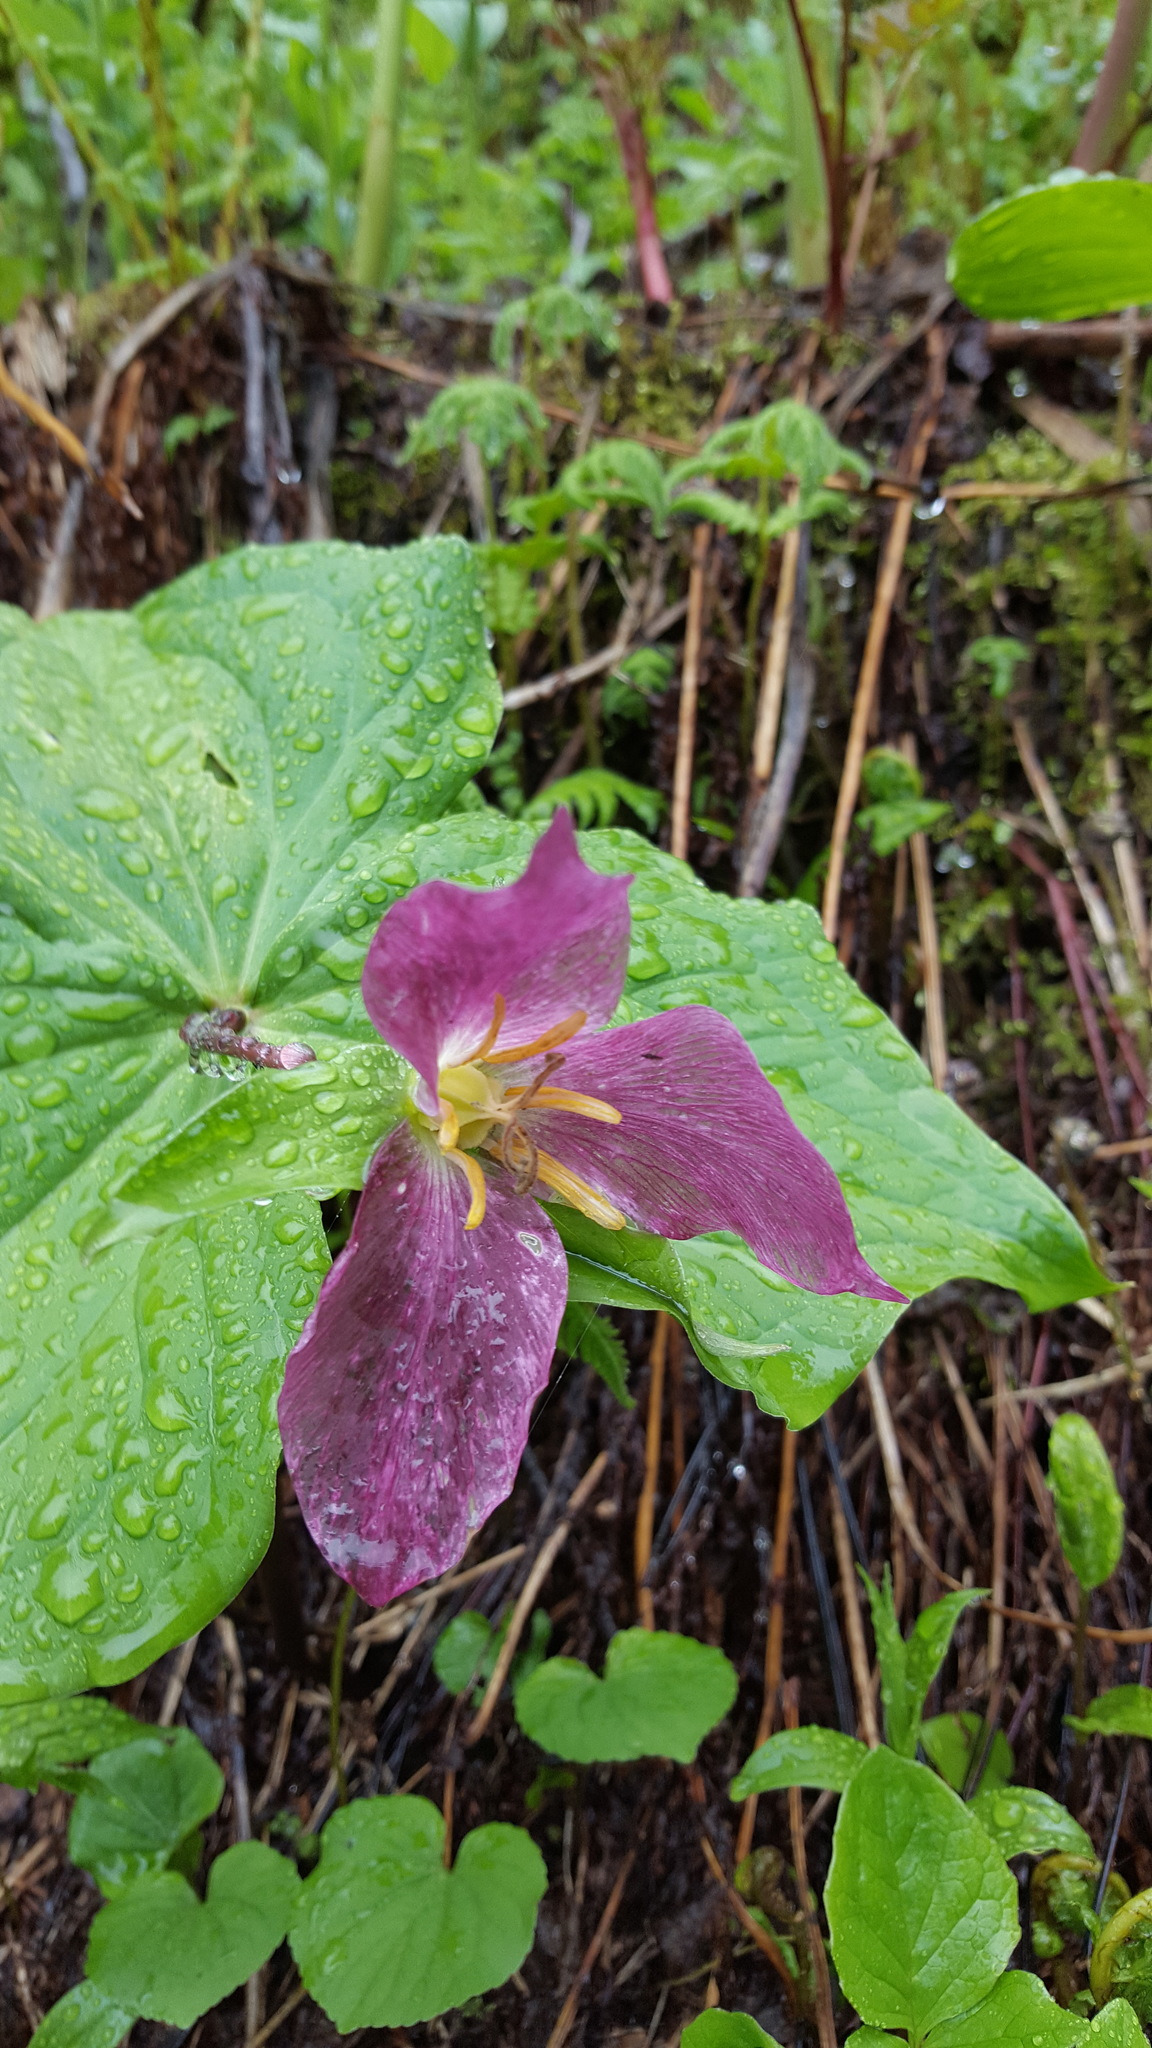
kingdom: Plantae
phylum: Tracheophyta
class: Liliopsida
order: Liliales
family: Melanthiaceae
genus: Trillium
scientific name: Trillium ovatum
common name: Pacific trillium
